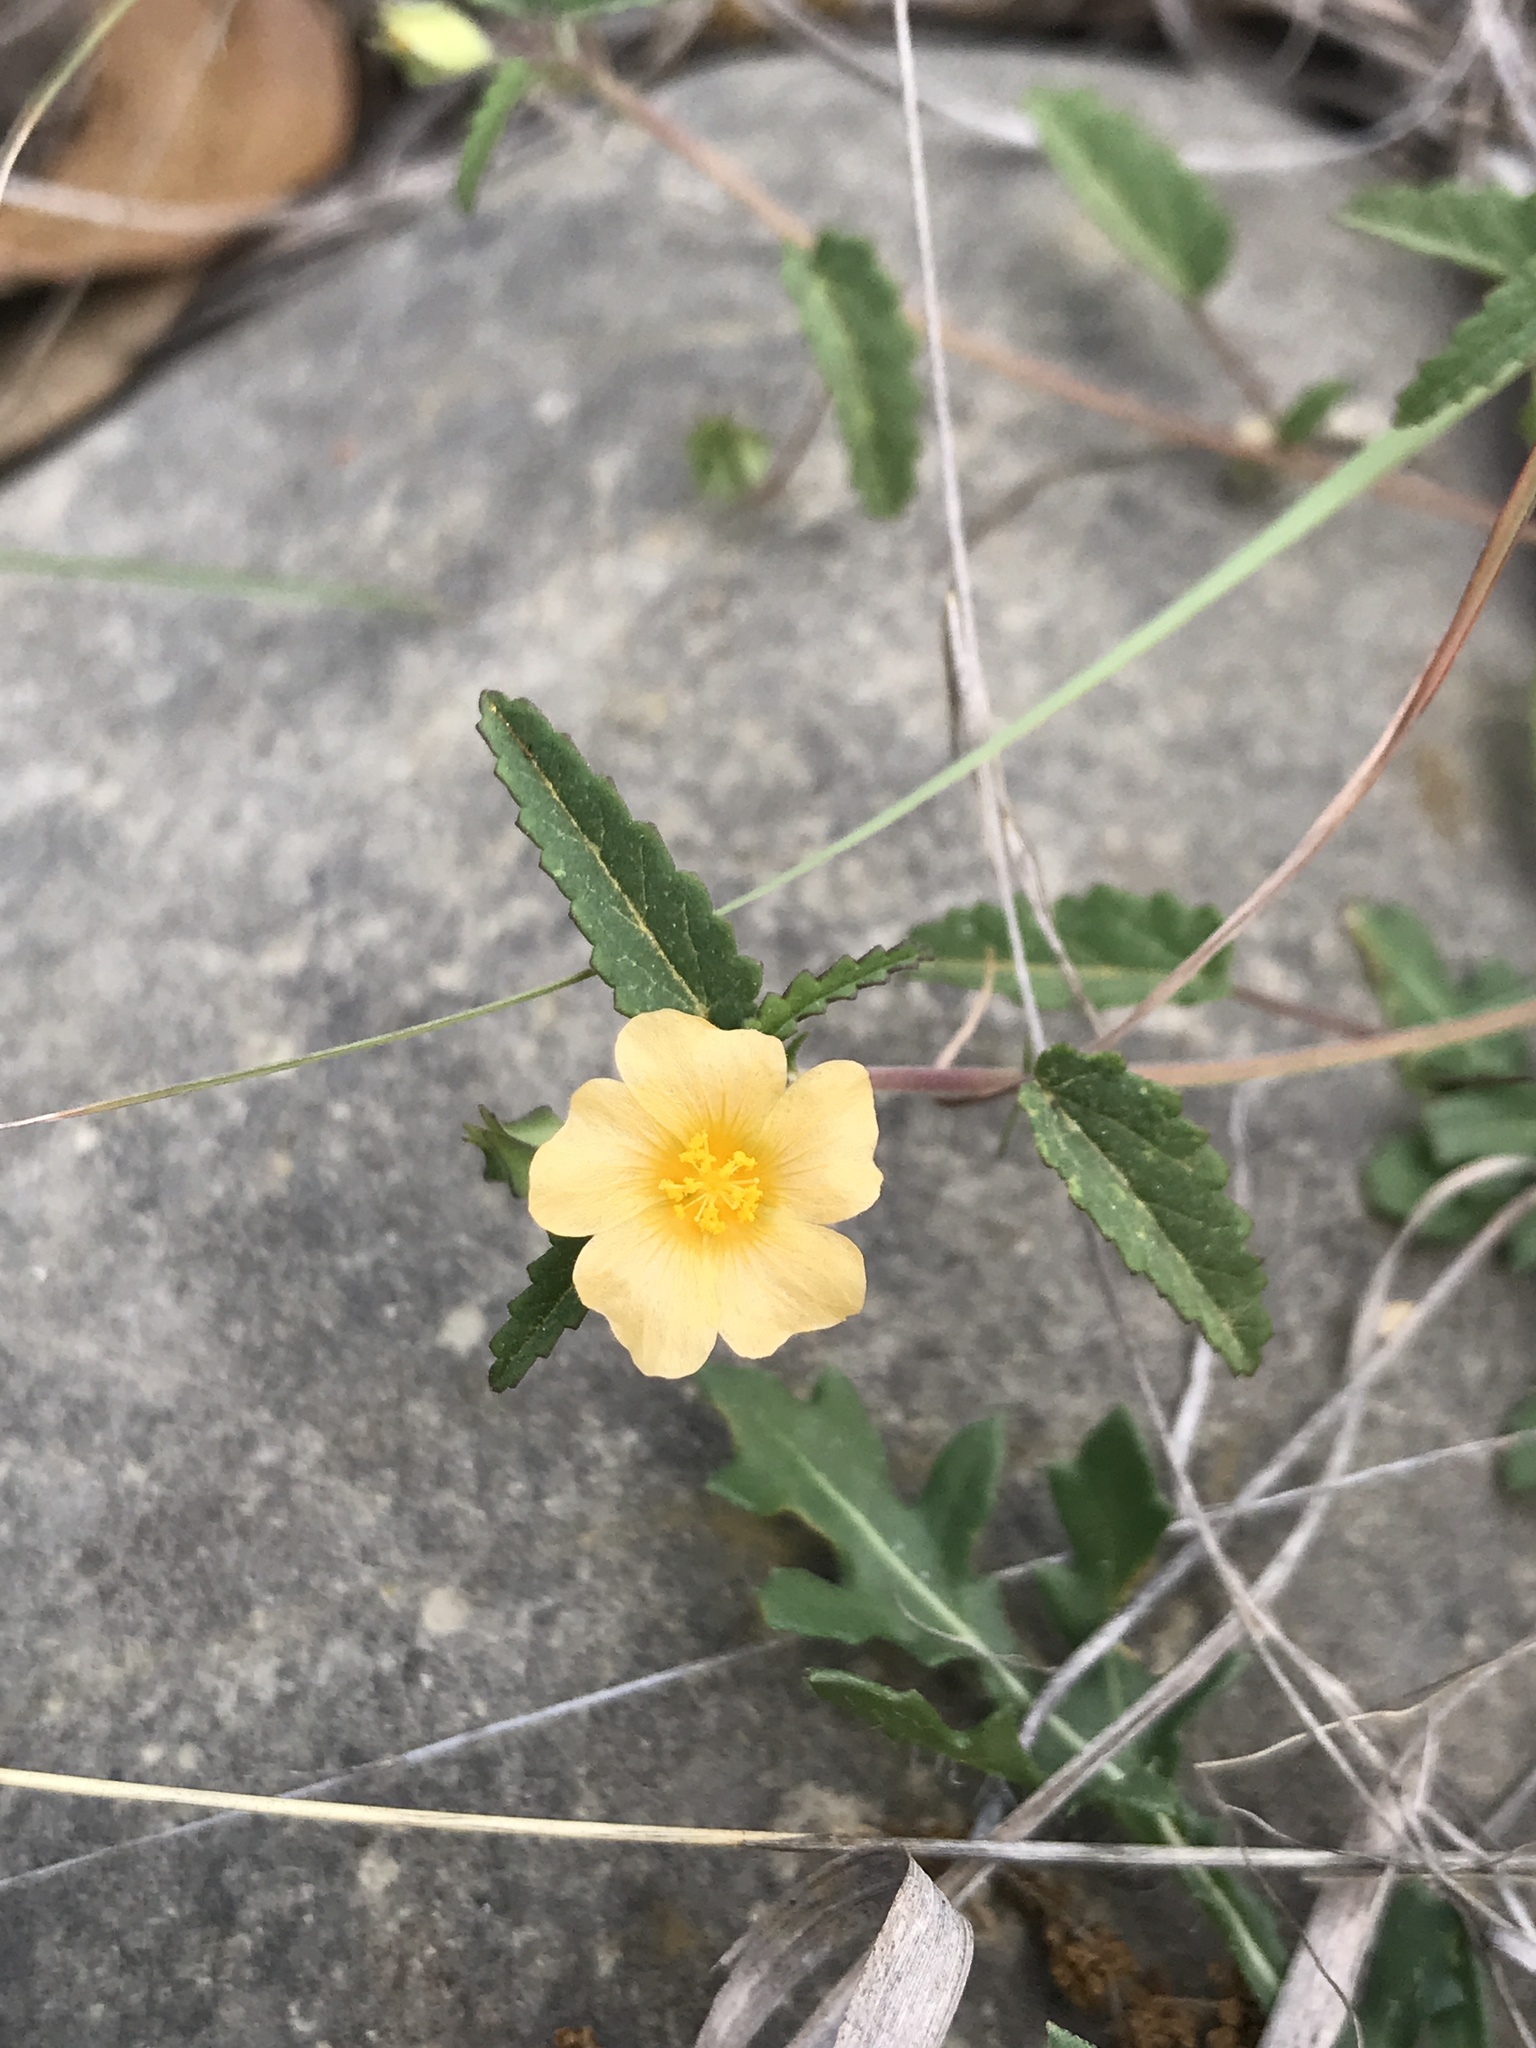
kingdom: Plantae
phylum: Tracheophyta
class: Magnoliopsida
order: Malvales
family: Malvaceae
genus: Sida
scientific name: Sida abutilifolia
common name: Spreading fanpetals
